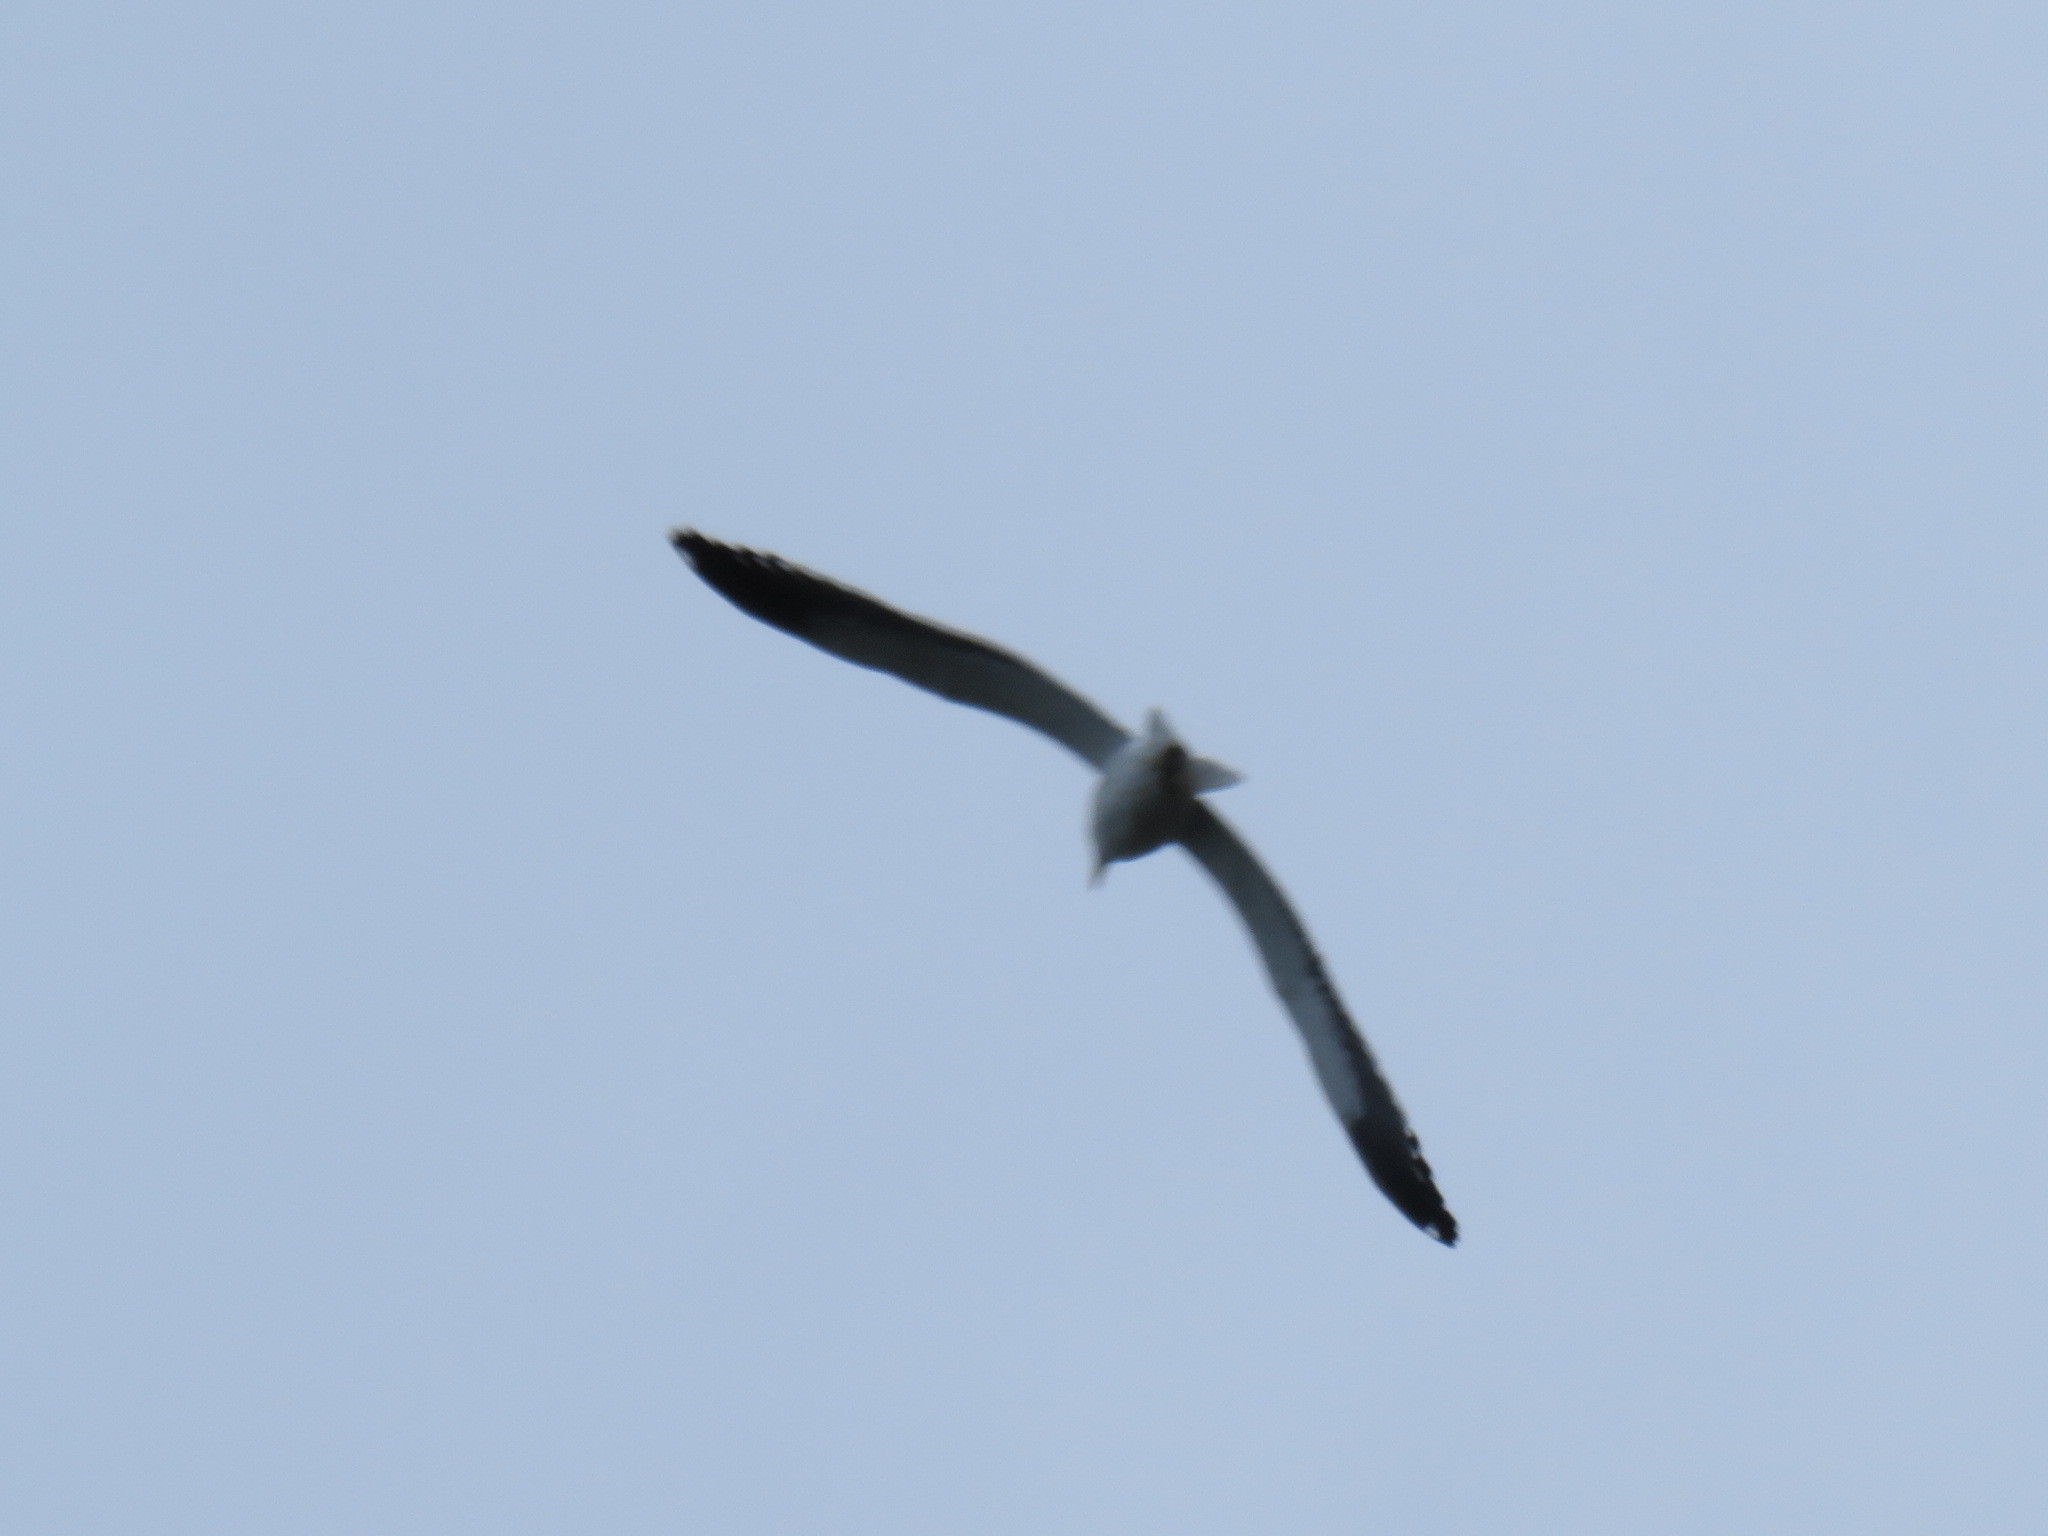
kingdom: Animalia
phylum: Chordata
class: Aves
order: Charadriiformes
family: Laridae
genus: Chroicocephalus
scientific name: Chroicocephalus hartlaubii
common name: Hartlaub's gull
